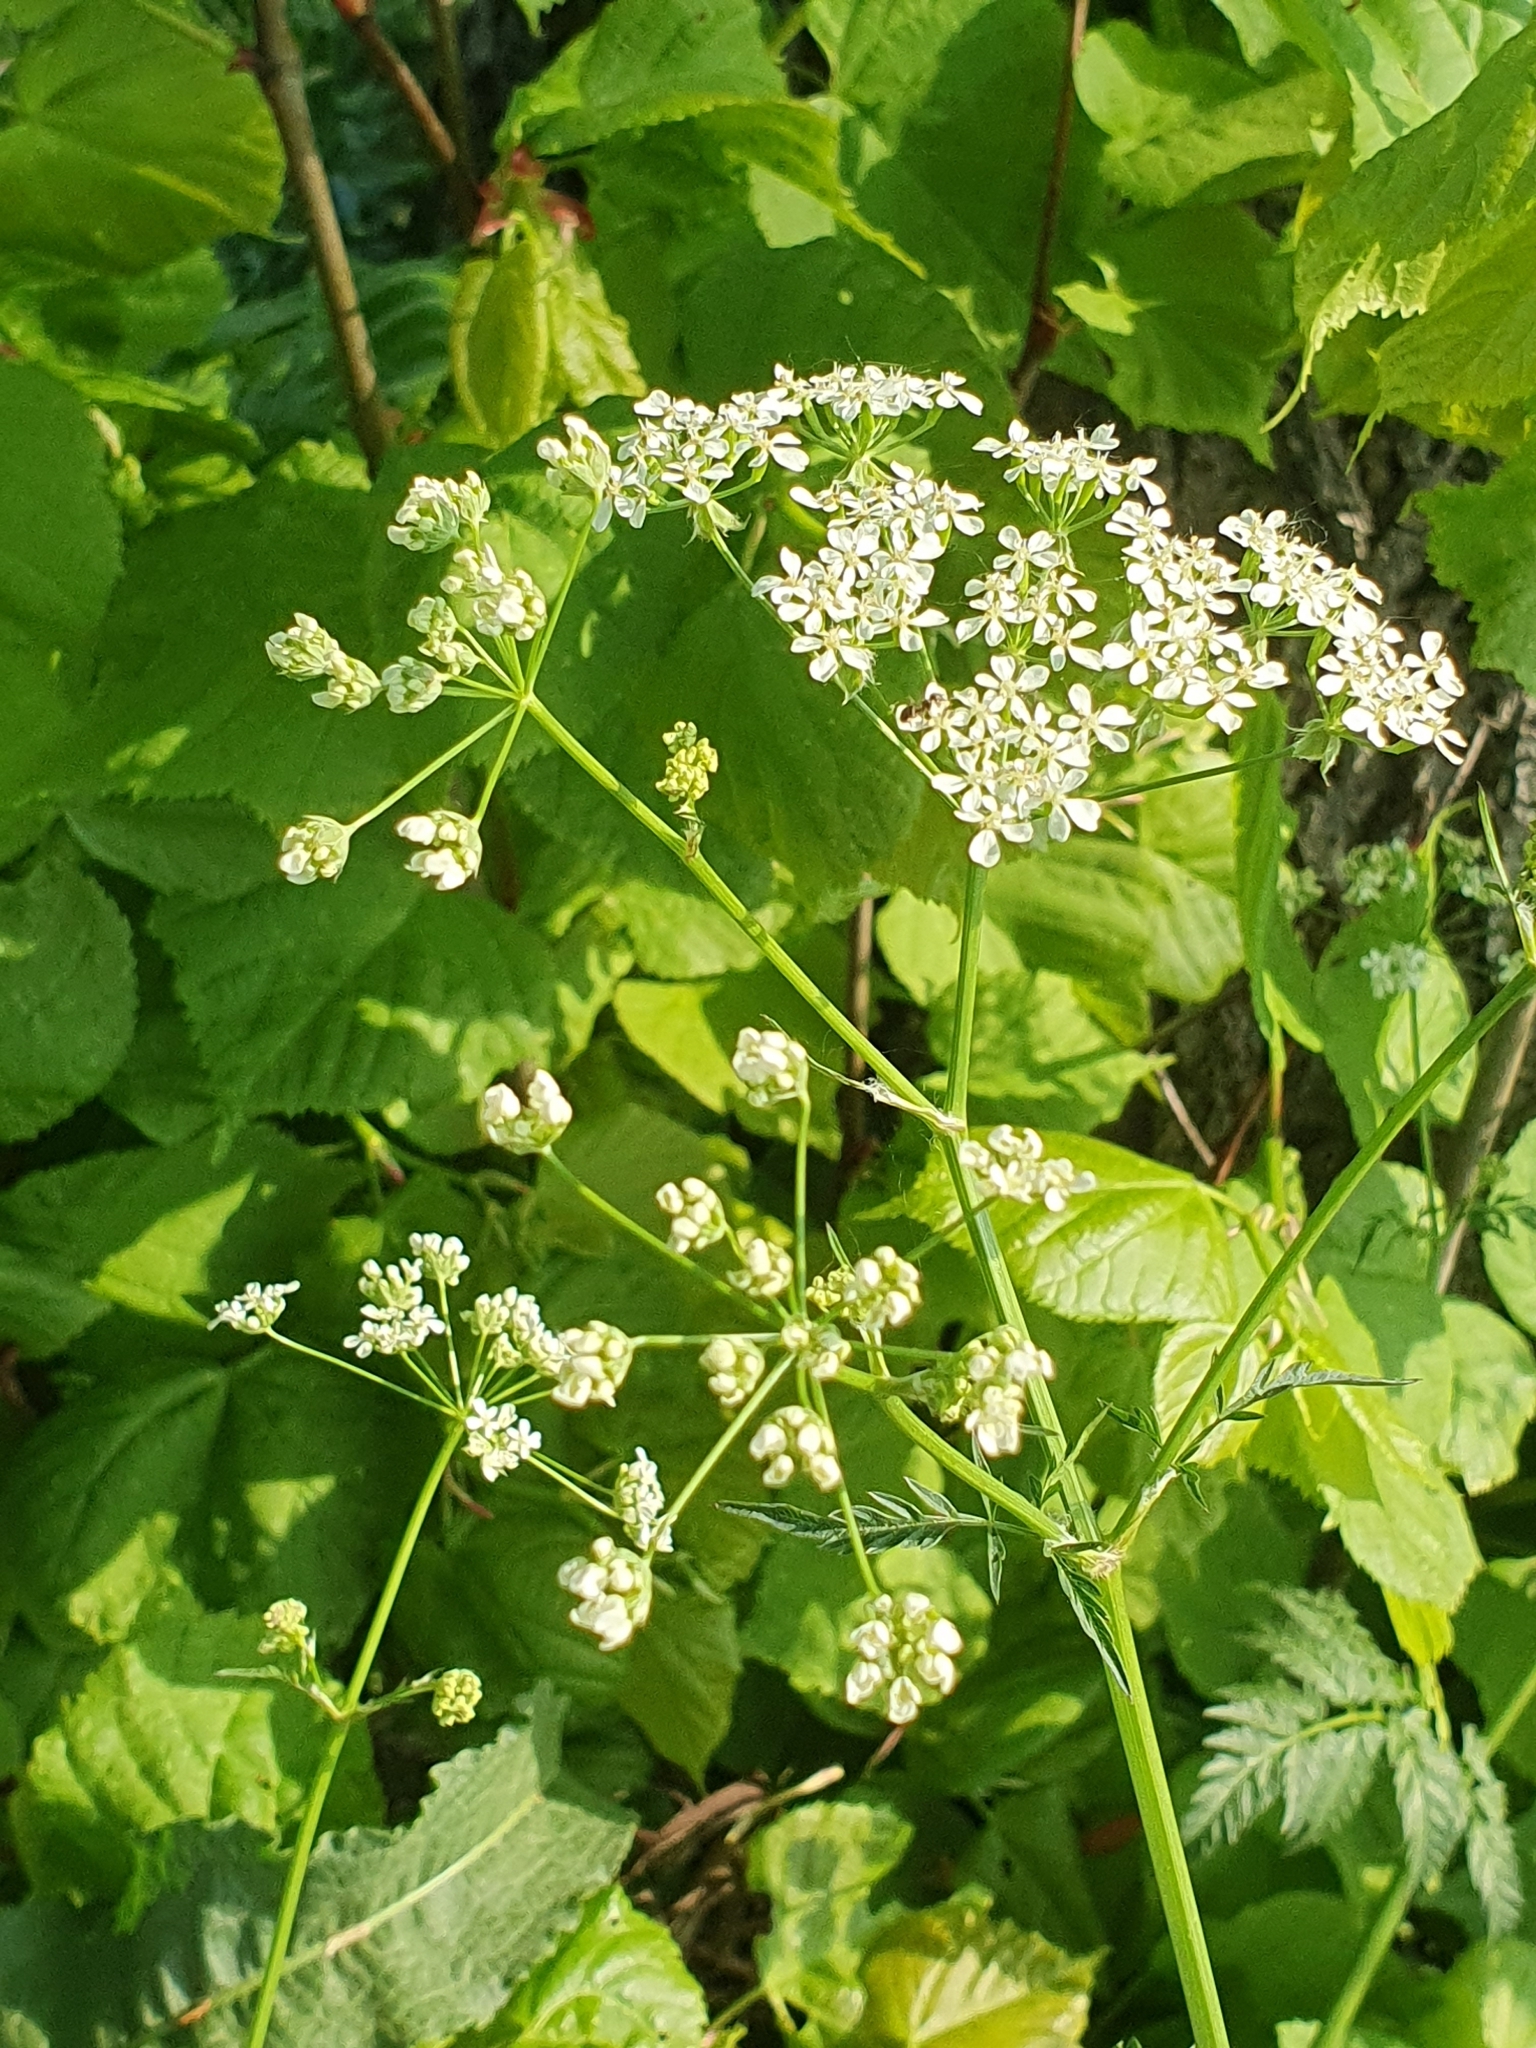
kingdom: Plantae
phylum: Tracheophyta
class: Magnoliopsida
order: Apiales
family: Apiaceae
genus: Anthriscus
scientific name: Anthriscus sylvestris
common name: Cow parsley
